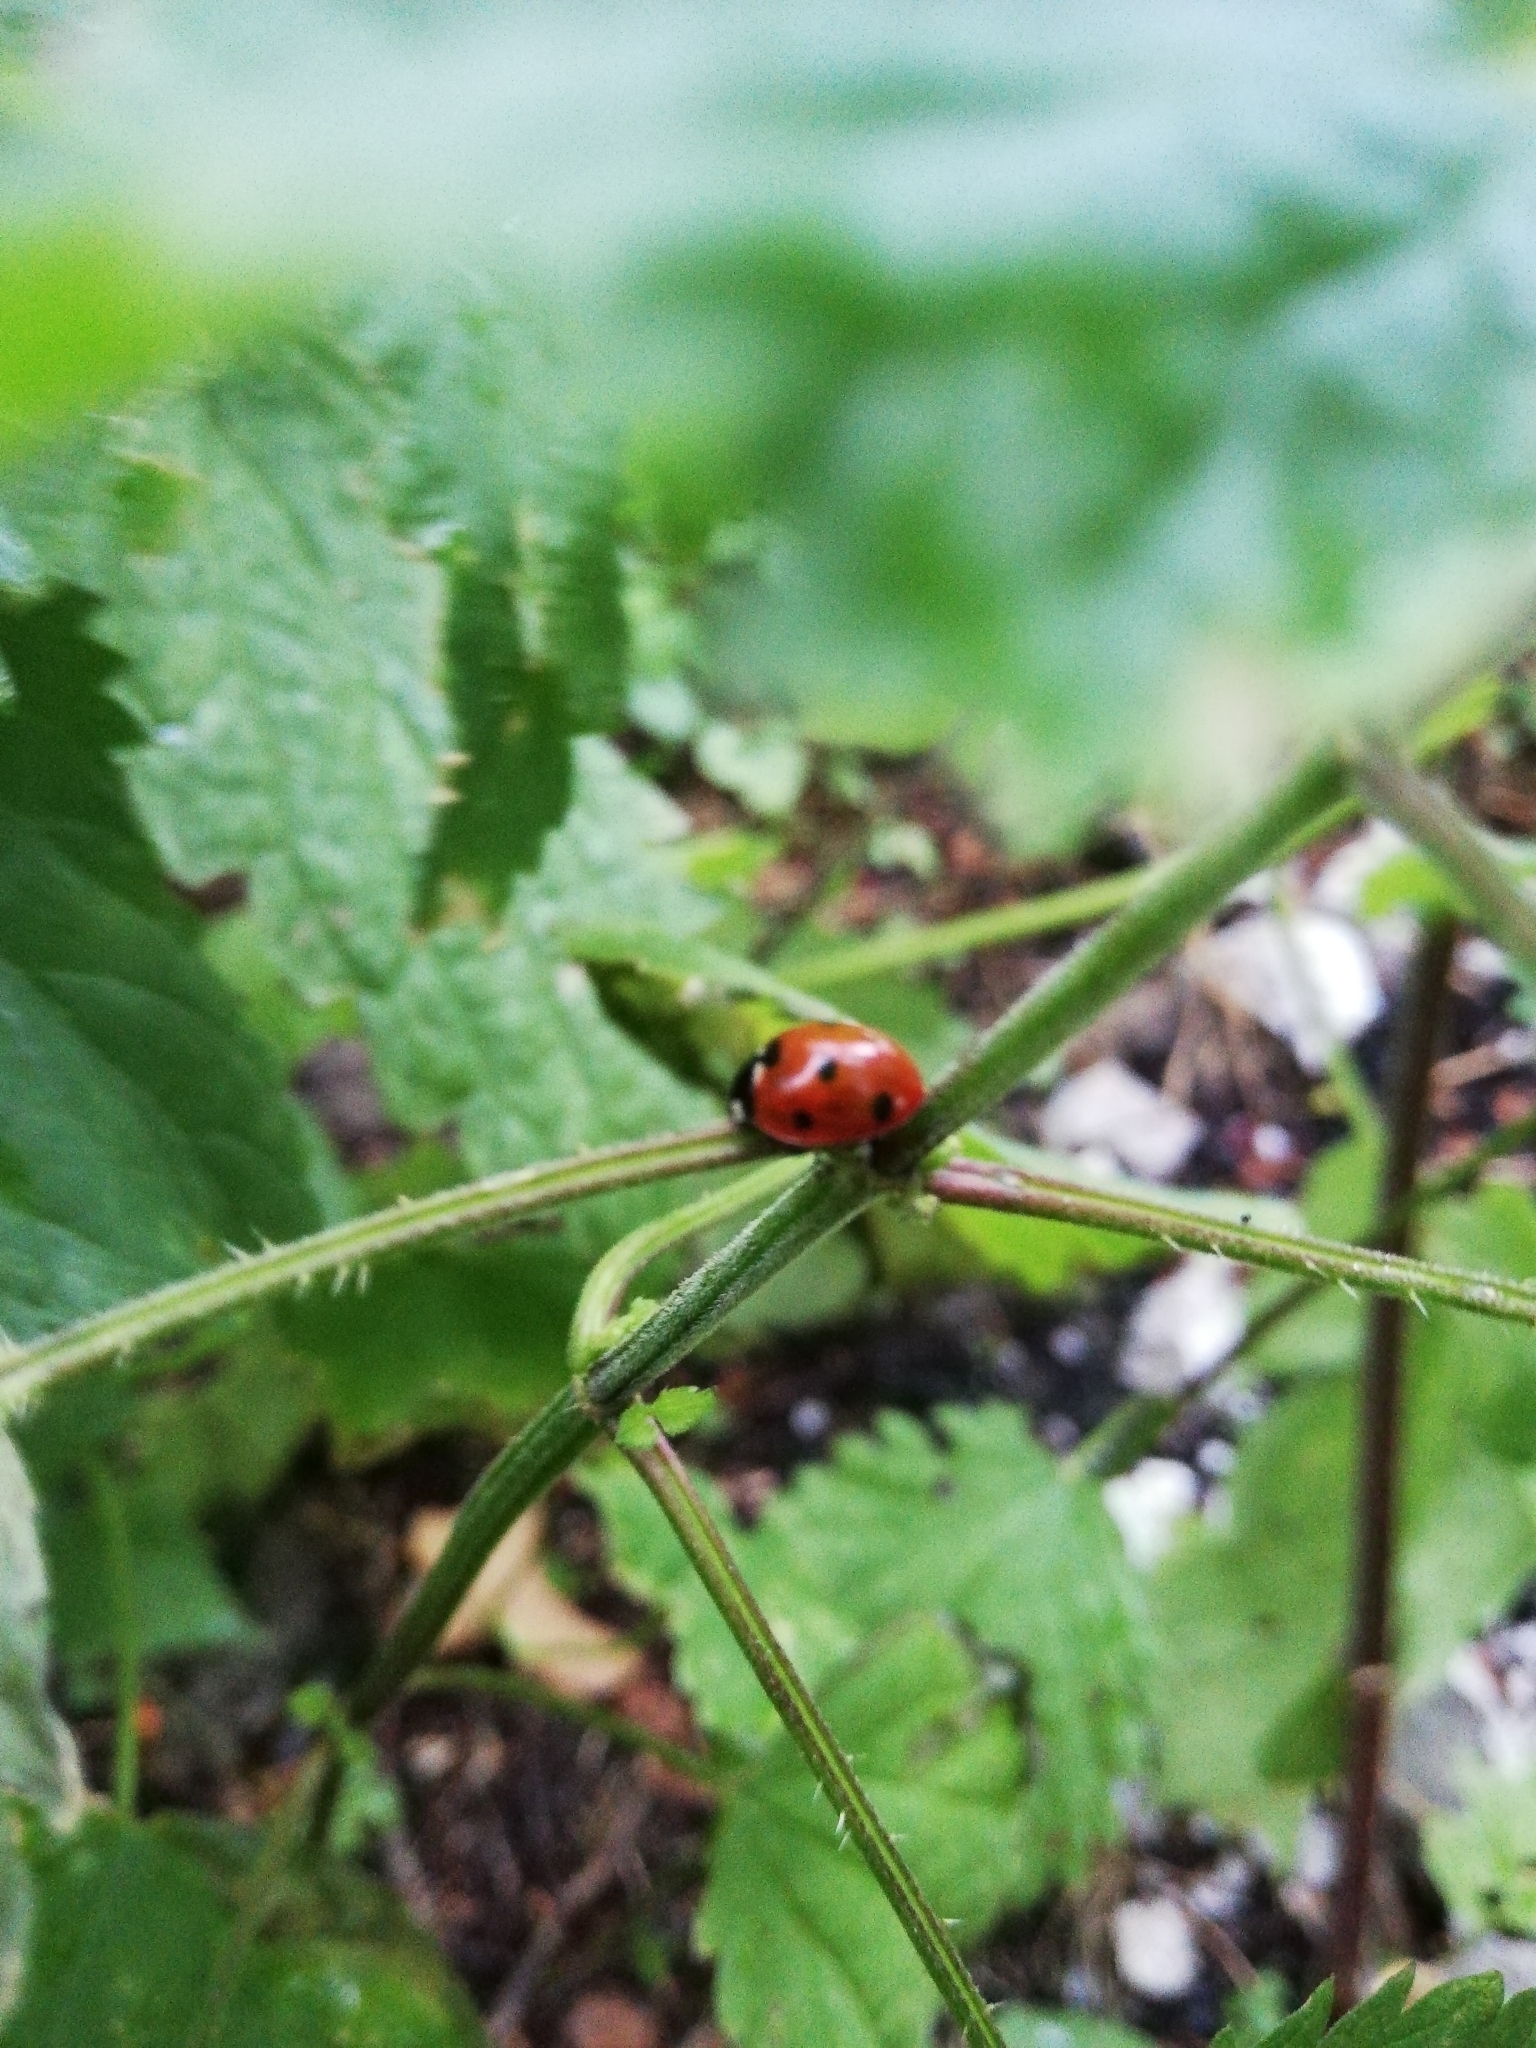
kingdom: Animalia
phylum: Arthropoda
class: Insecta
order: Coleoptera
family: Coccinellidae
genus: Coccinella
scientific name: Coccinella septempunctata
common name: Sevenspotted lady beetle
